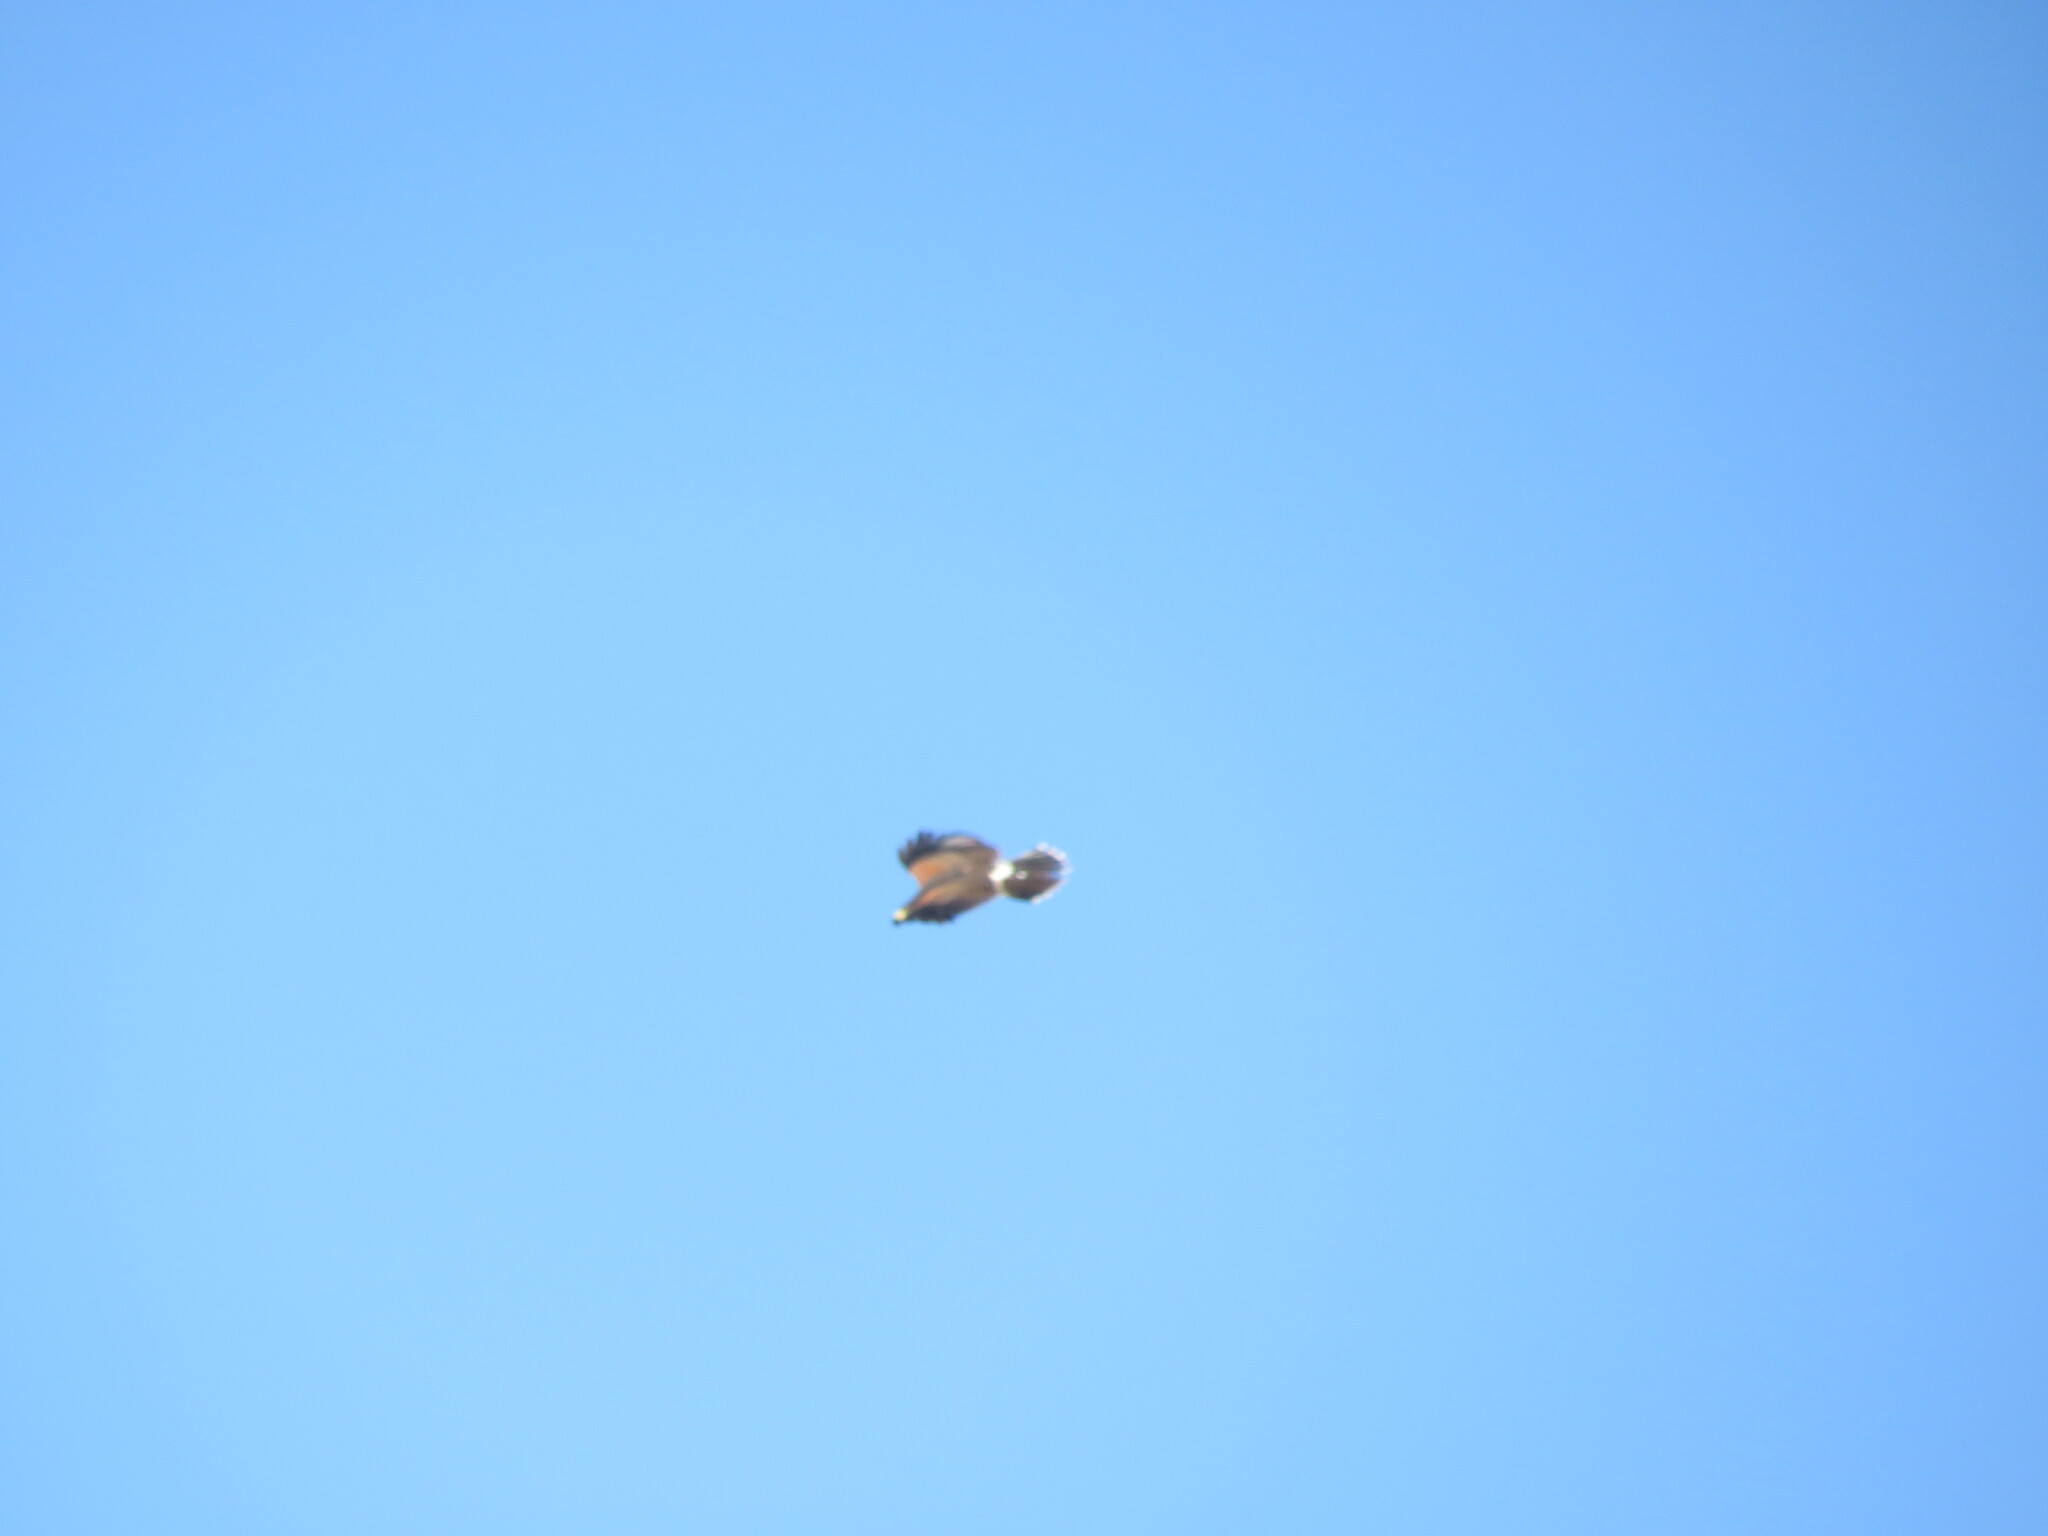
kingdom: Animalia
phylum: Chordata
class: Aves
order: Accipitriformes
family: Accipitridae
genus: Parabuteo
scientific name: Parabuteo unicinctus
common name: Harris's hawk
